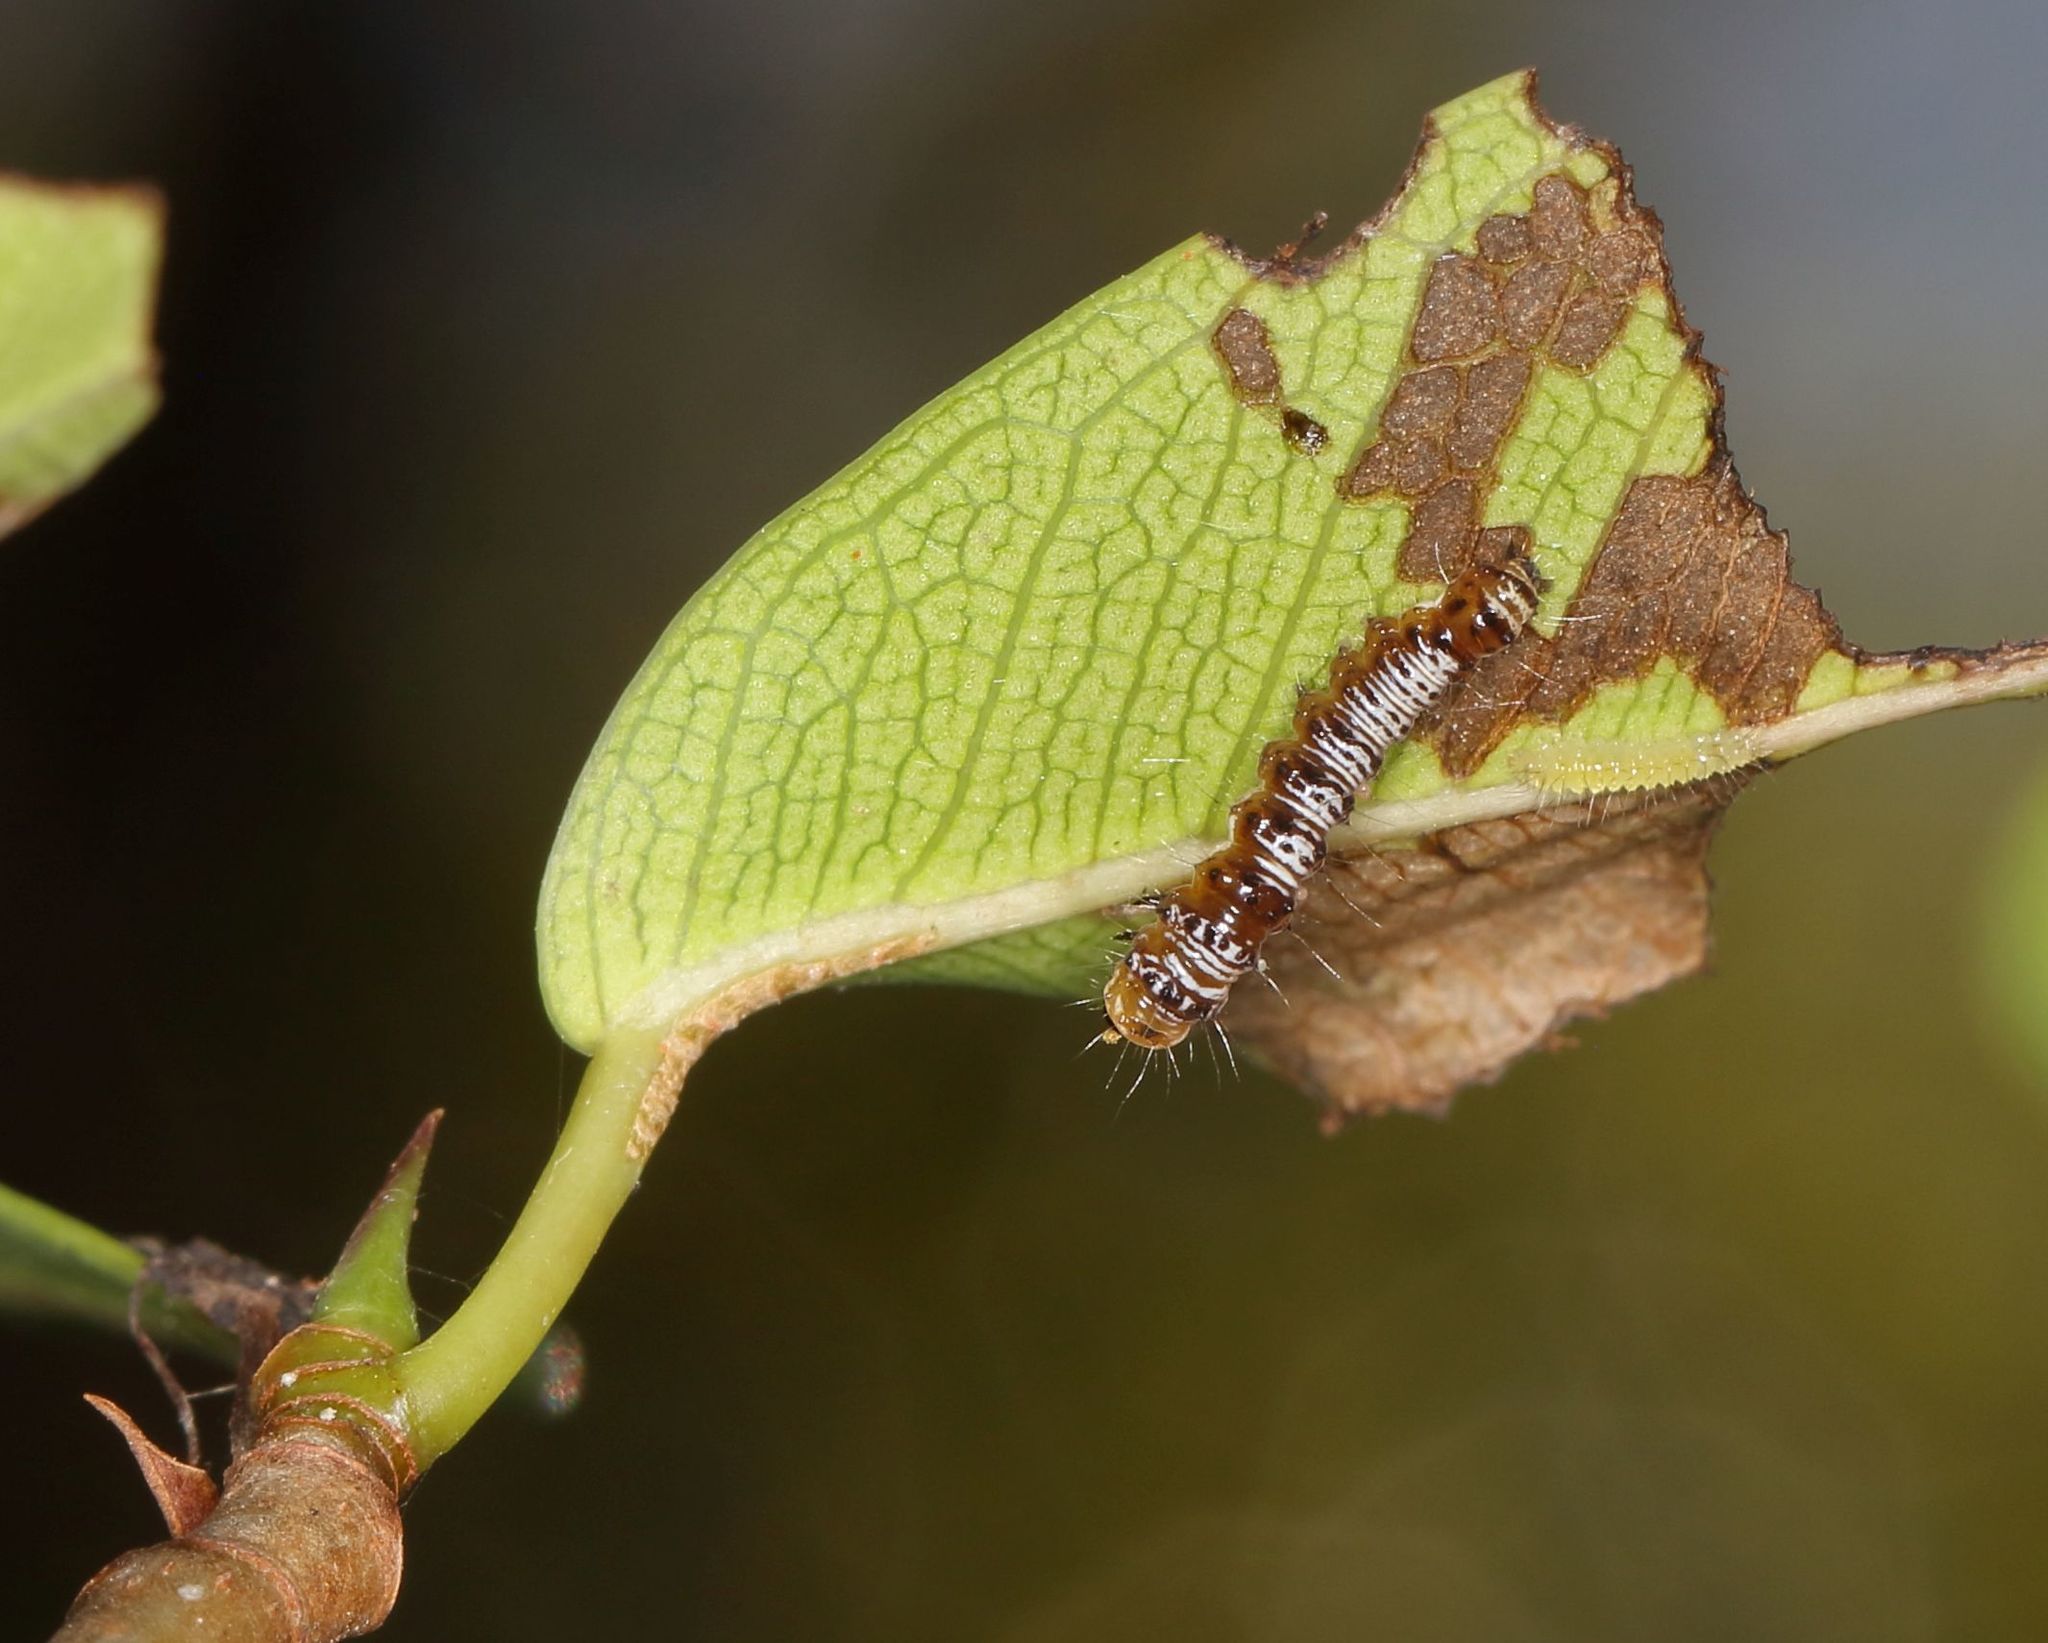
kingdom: Animalia
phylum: Arthropoda
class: Insecta
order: Lepidoptera
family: Erebidae
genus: Asota
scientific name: Asota speciosa
